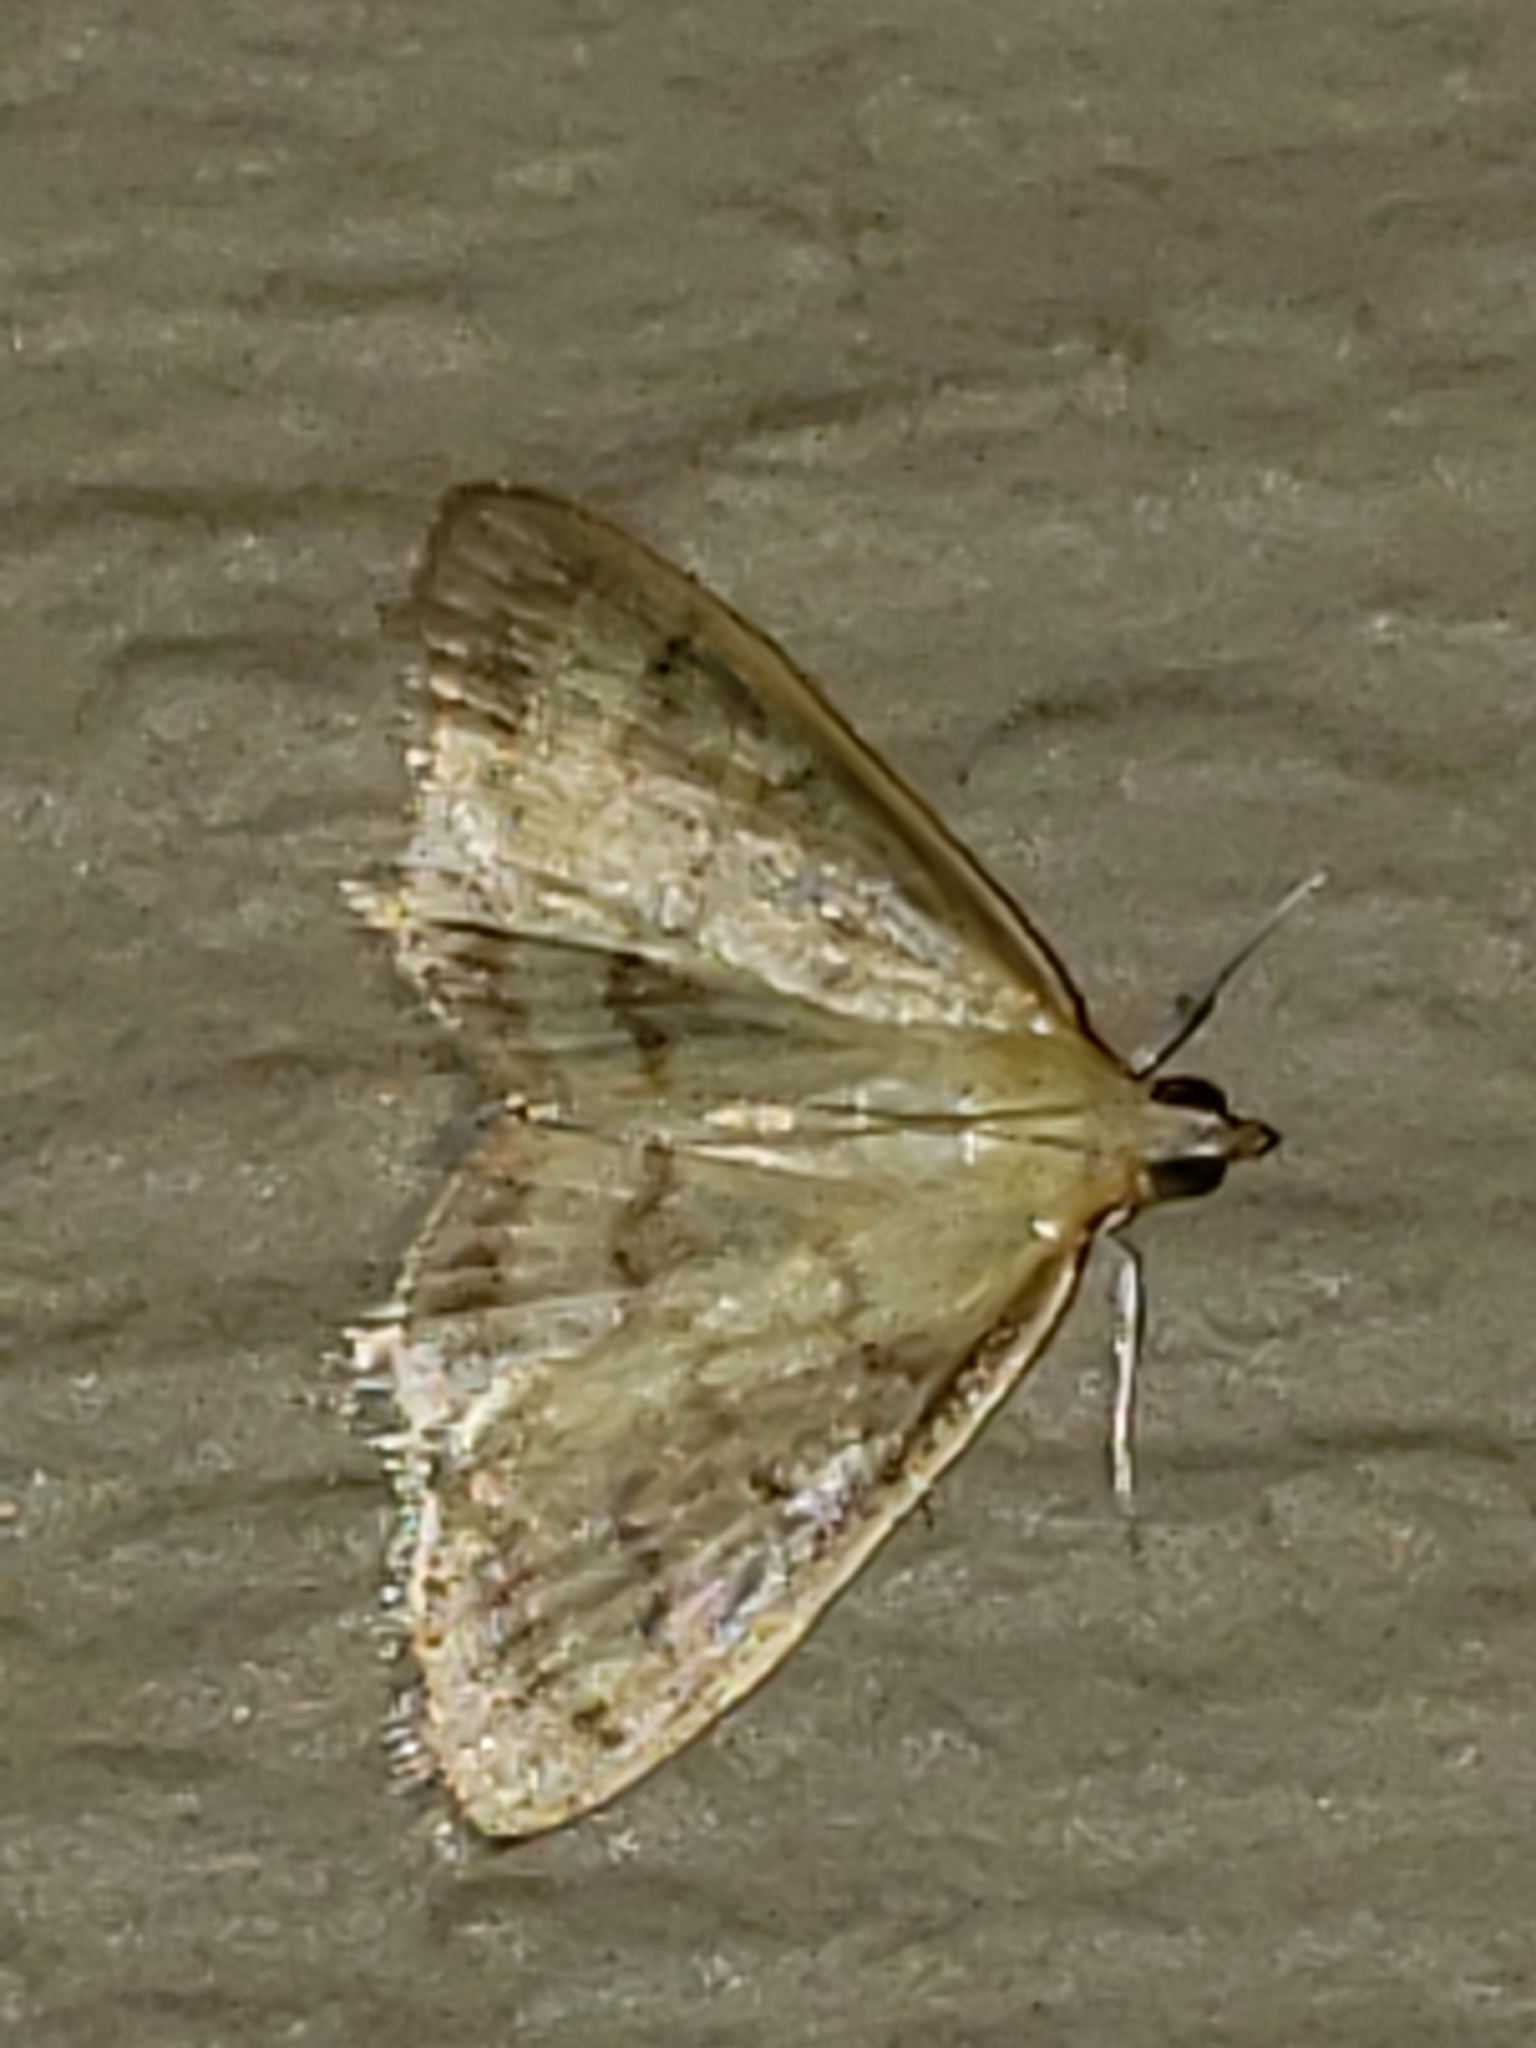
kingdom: Animalia
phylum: Arthropoda
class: Insecta
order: Lepidoptera
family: Crambidae
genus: Crocidophora
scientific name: Crocidophora tuberculalis
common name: Pale-winged crocidiphora moth
